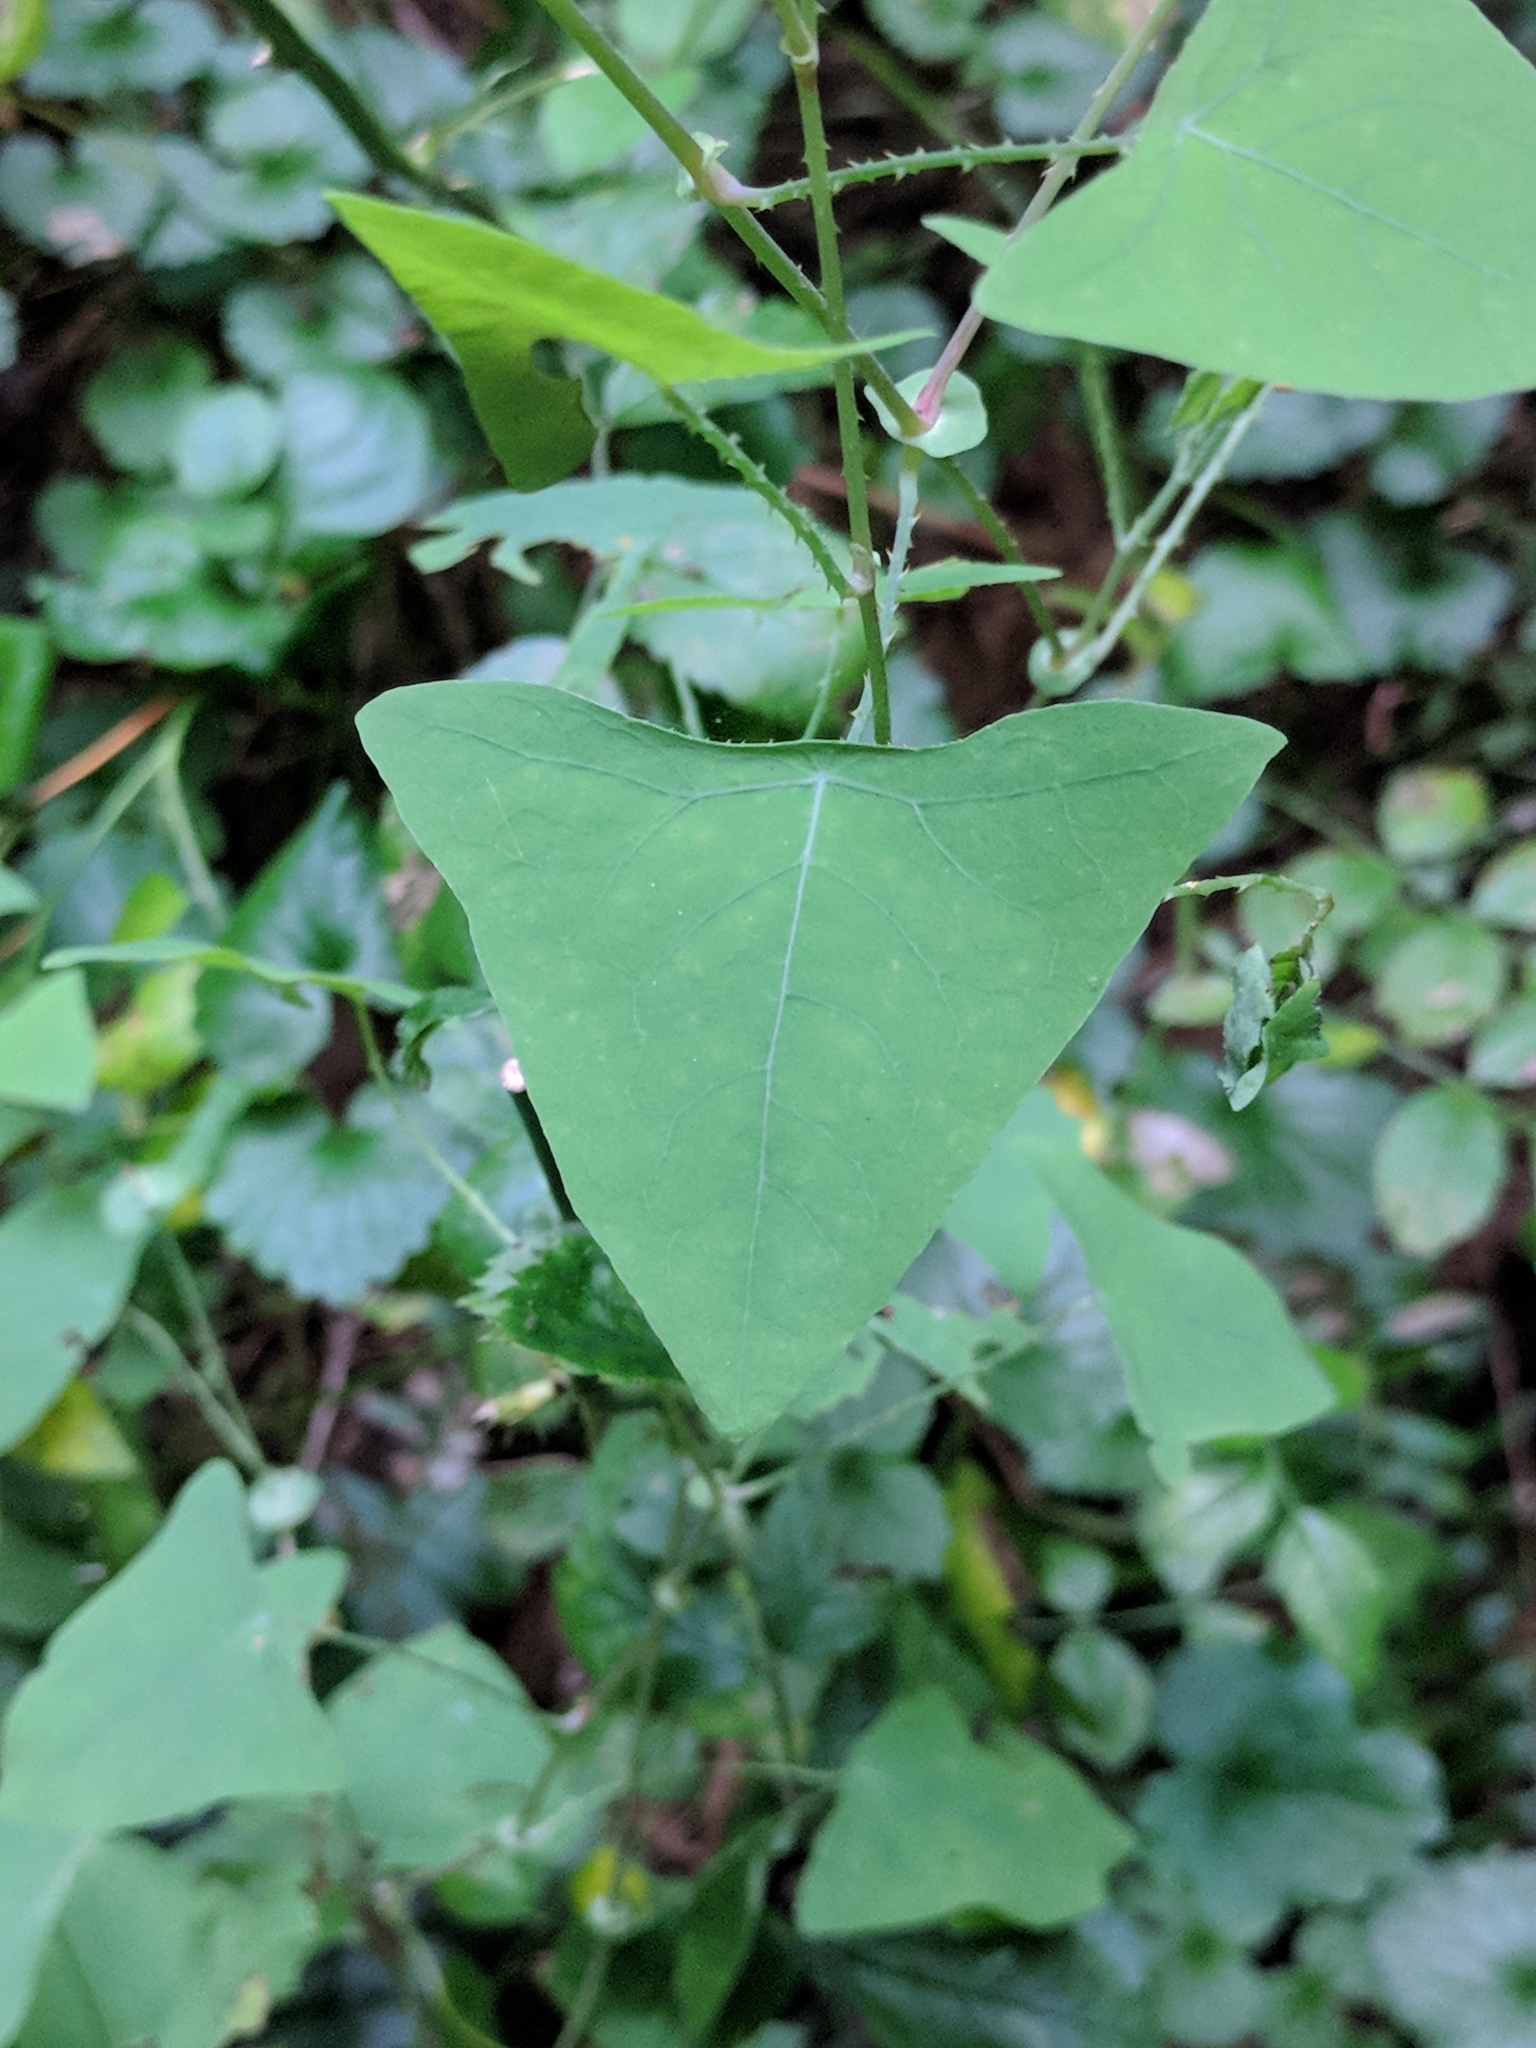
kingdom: Plantae
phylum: Tracheophyta
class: Magnoliopsida
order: Caryophyllales
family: Polygonaceae
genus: Persicaria
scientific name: Persicaria perfoliata
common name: Asiatic tearthumb
